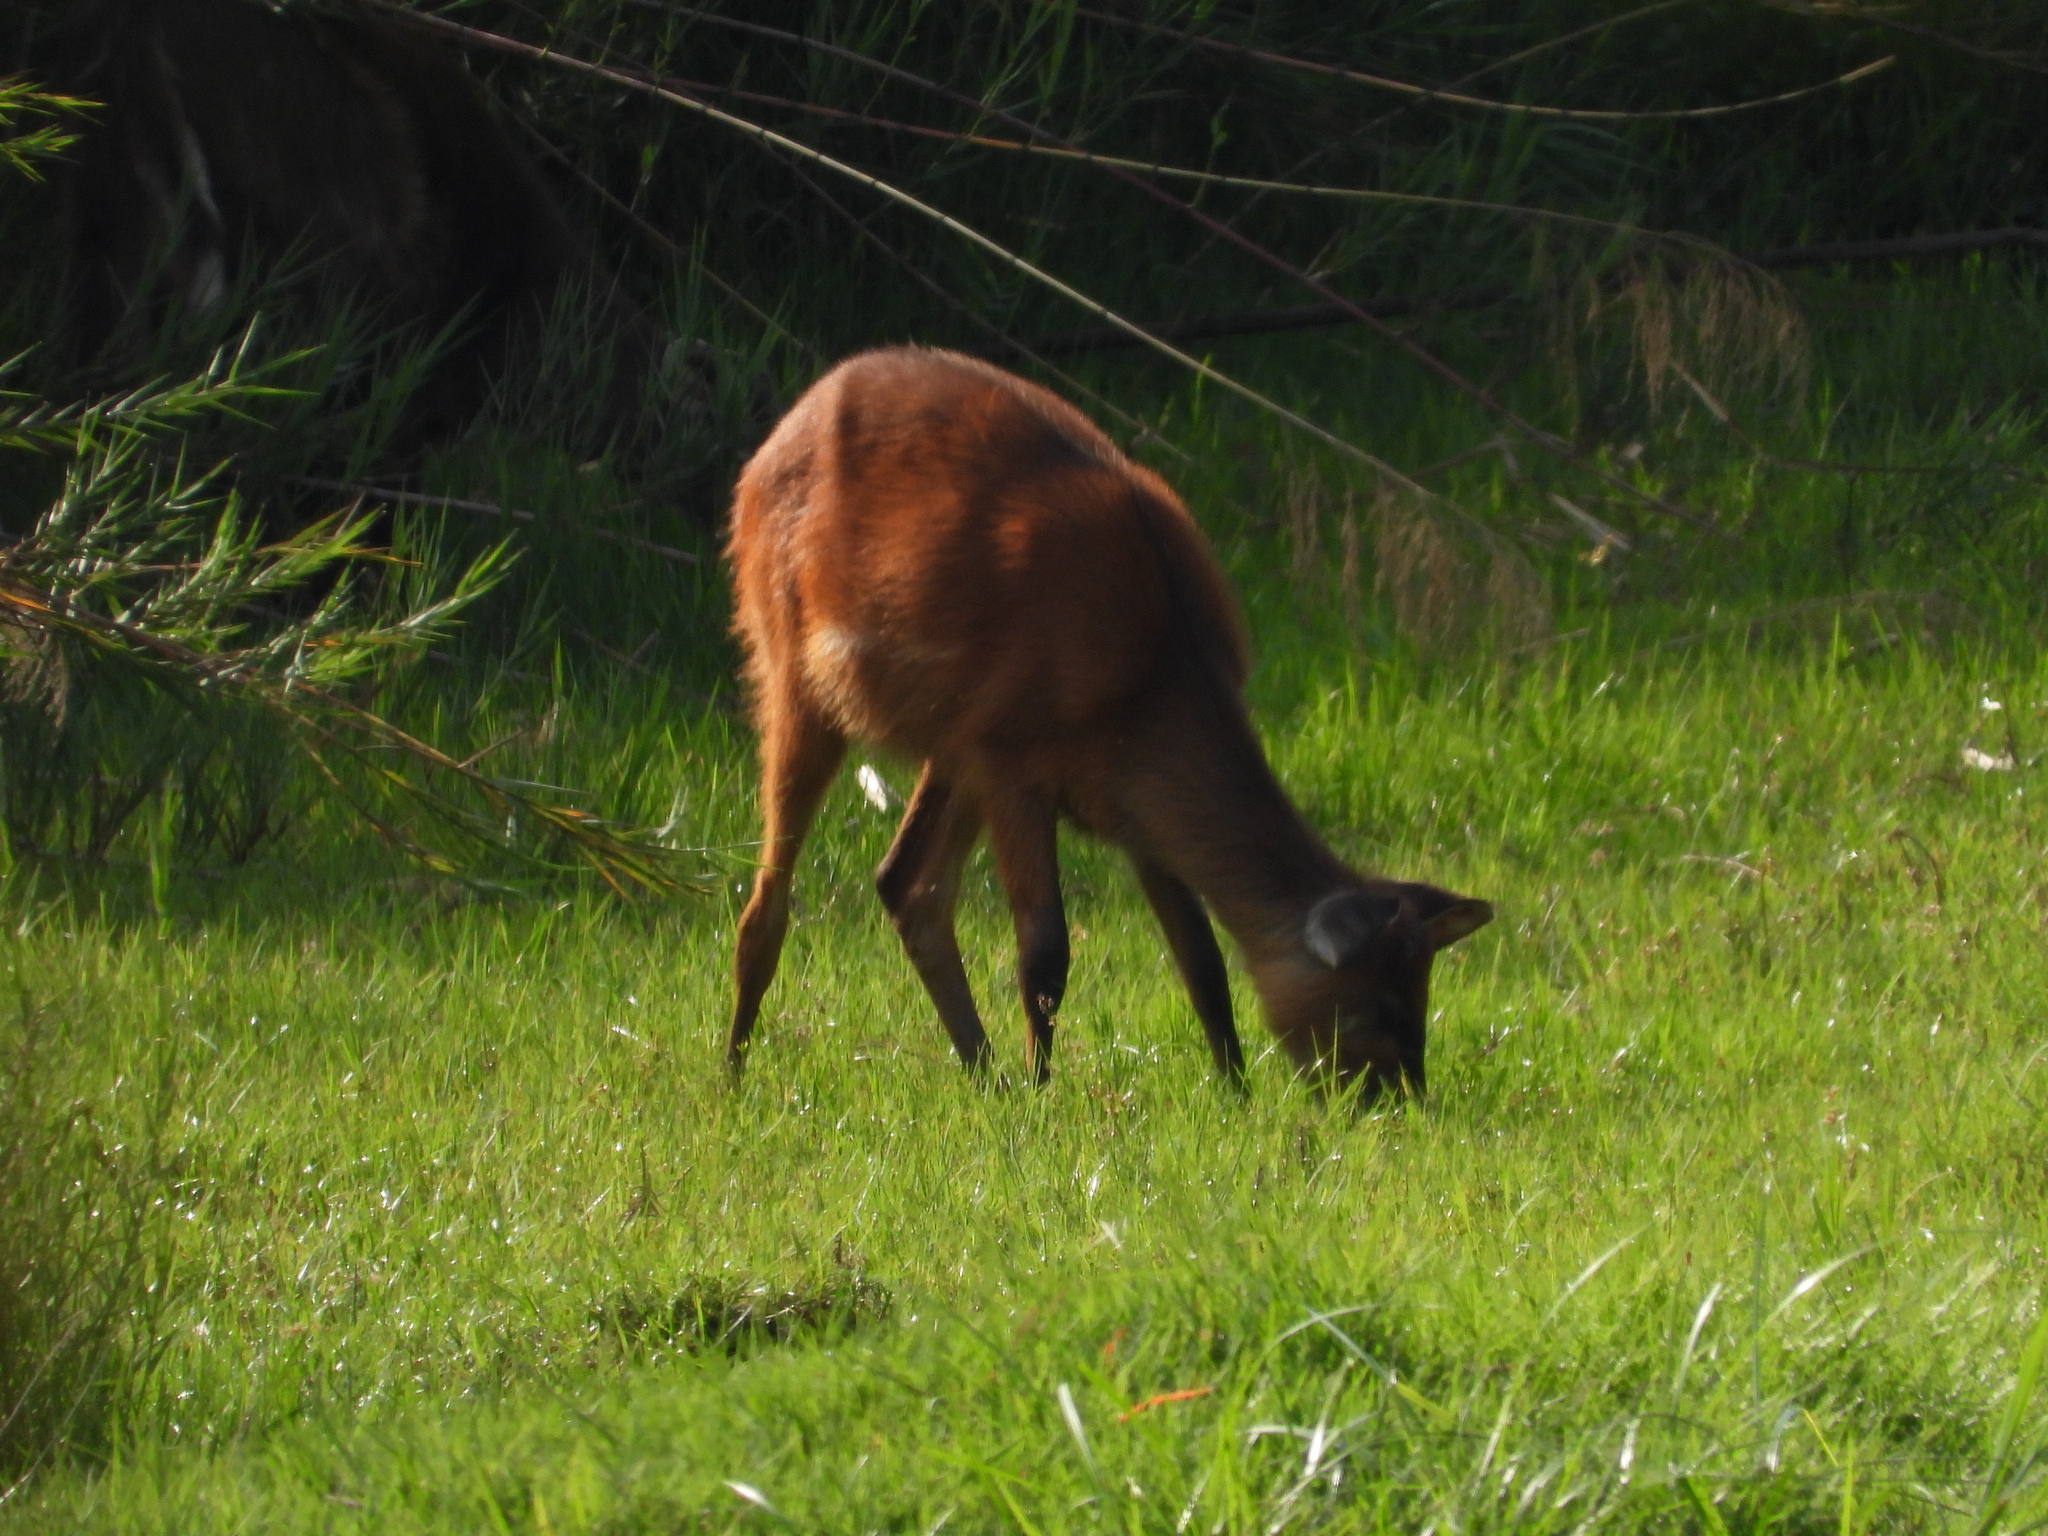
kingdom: Animalia
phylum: Chordata
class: Mammalia
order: Artiodactyla
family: Bovidae
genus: Tragelaphus
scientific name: Tragelaphus spekii
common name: Sitatunga
